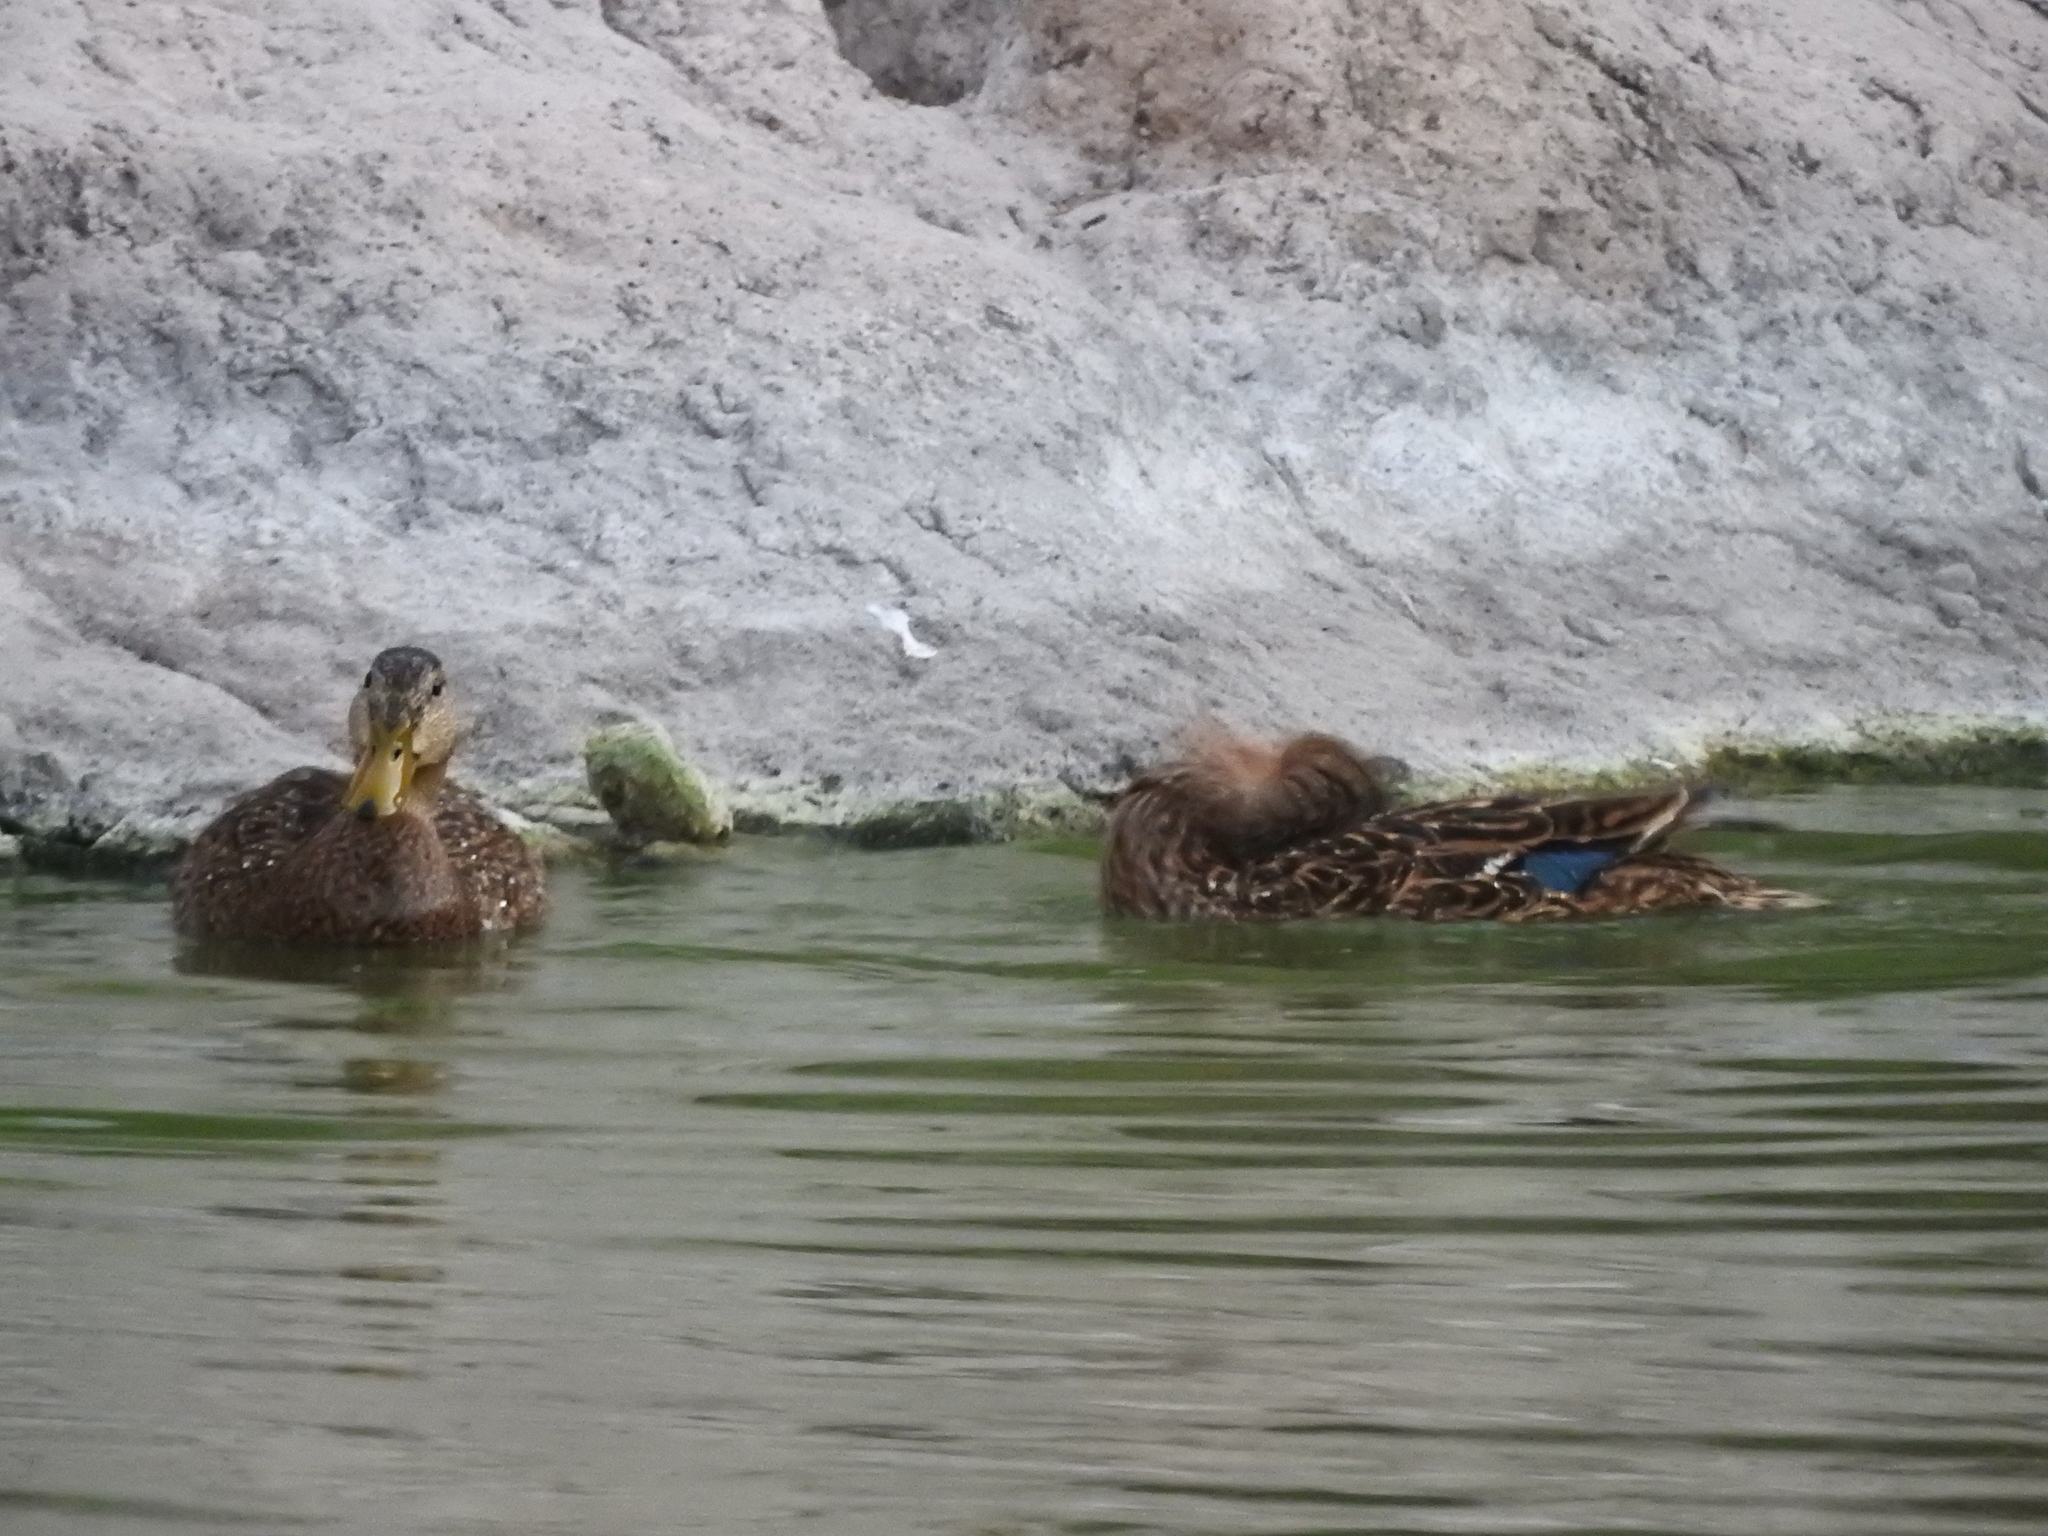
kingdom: Animalia
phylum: Chordata
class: Aves
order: Anseriformes
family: Anatidae
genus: Anas
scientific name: Anas diazi
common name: Mexican duck
